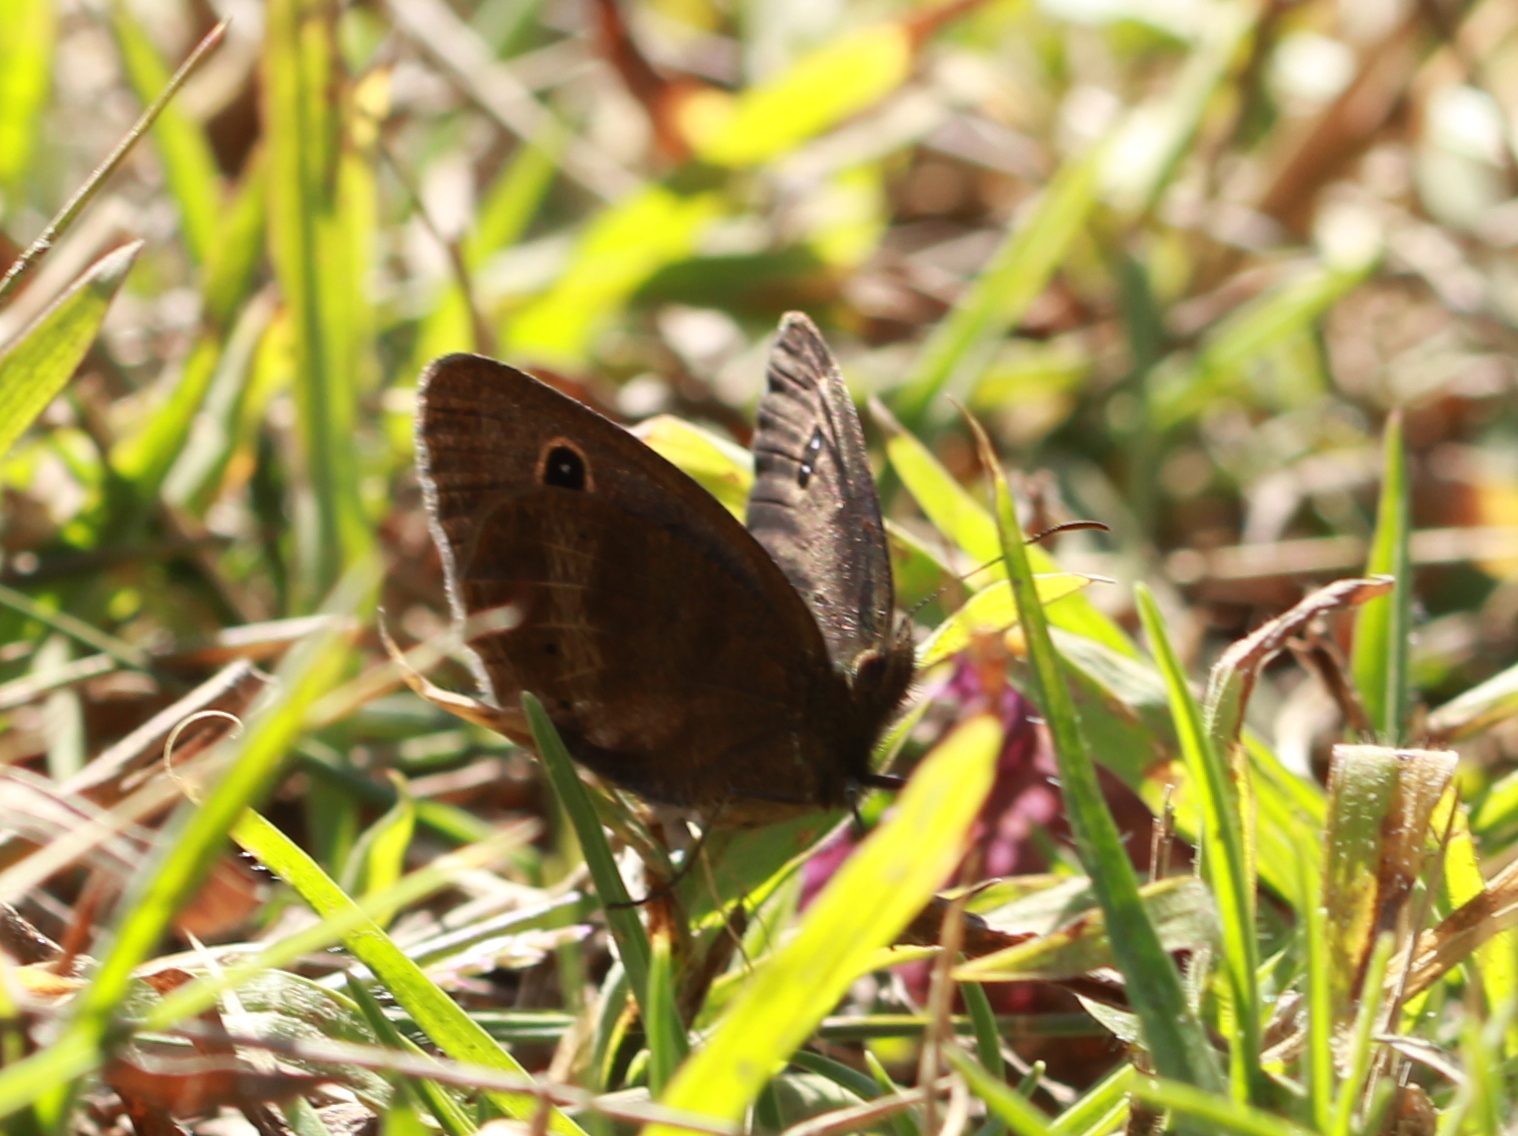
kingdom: Animalia
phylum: Arthropoda
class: Insecta
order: Lepidoptera
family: Nymphalidae
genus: Ypthima
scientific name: Ypthima ypthimoides
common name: Palni four-ring
